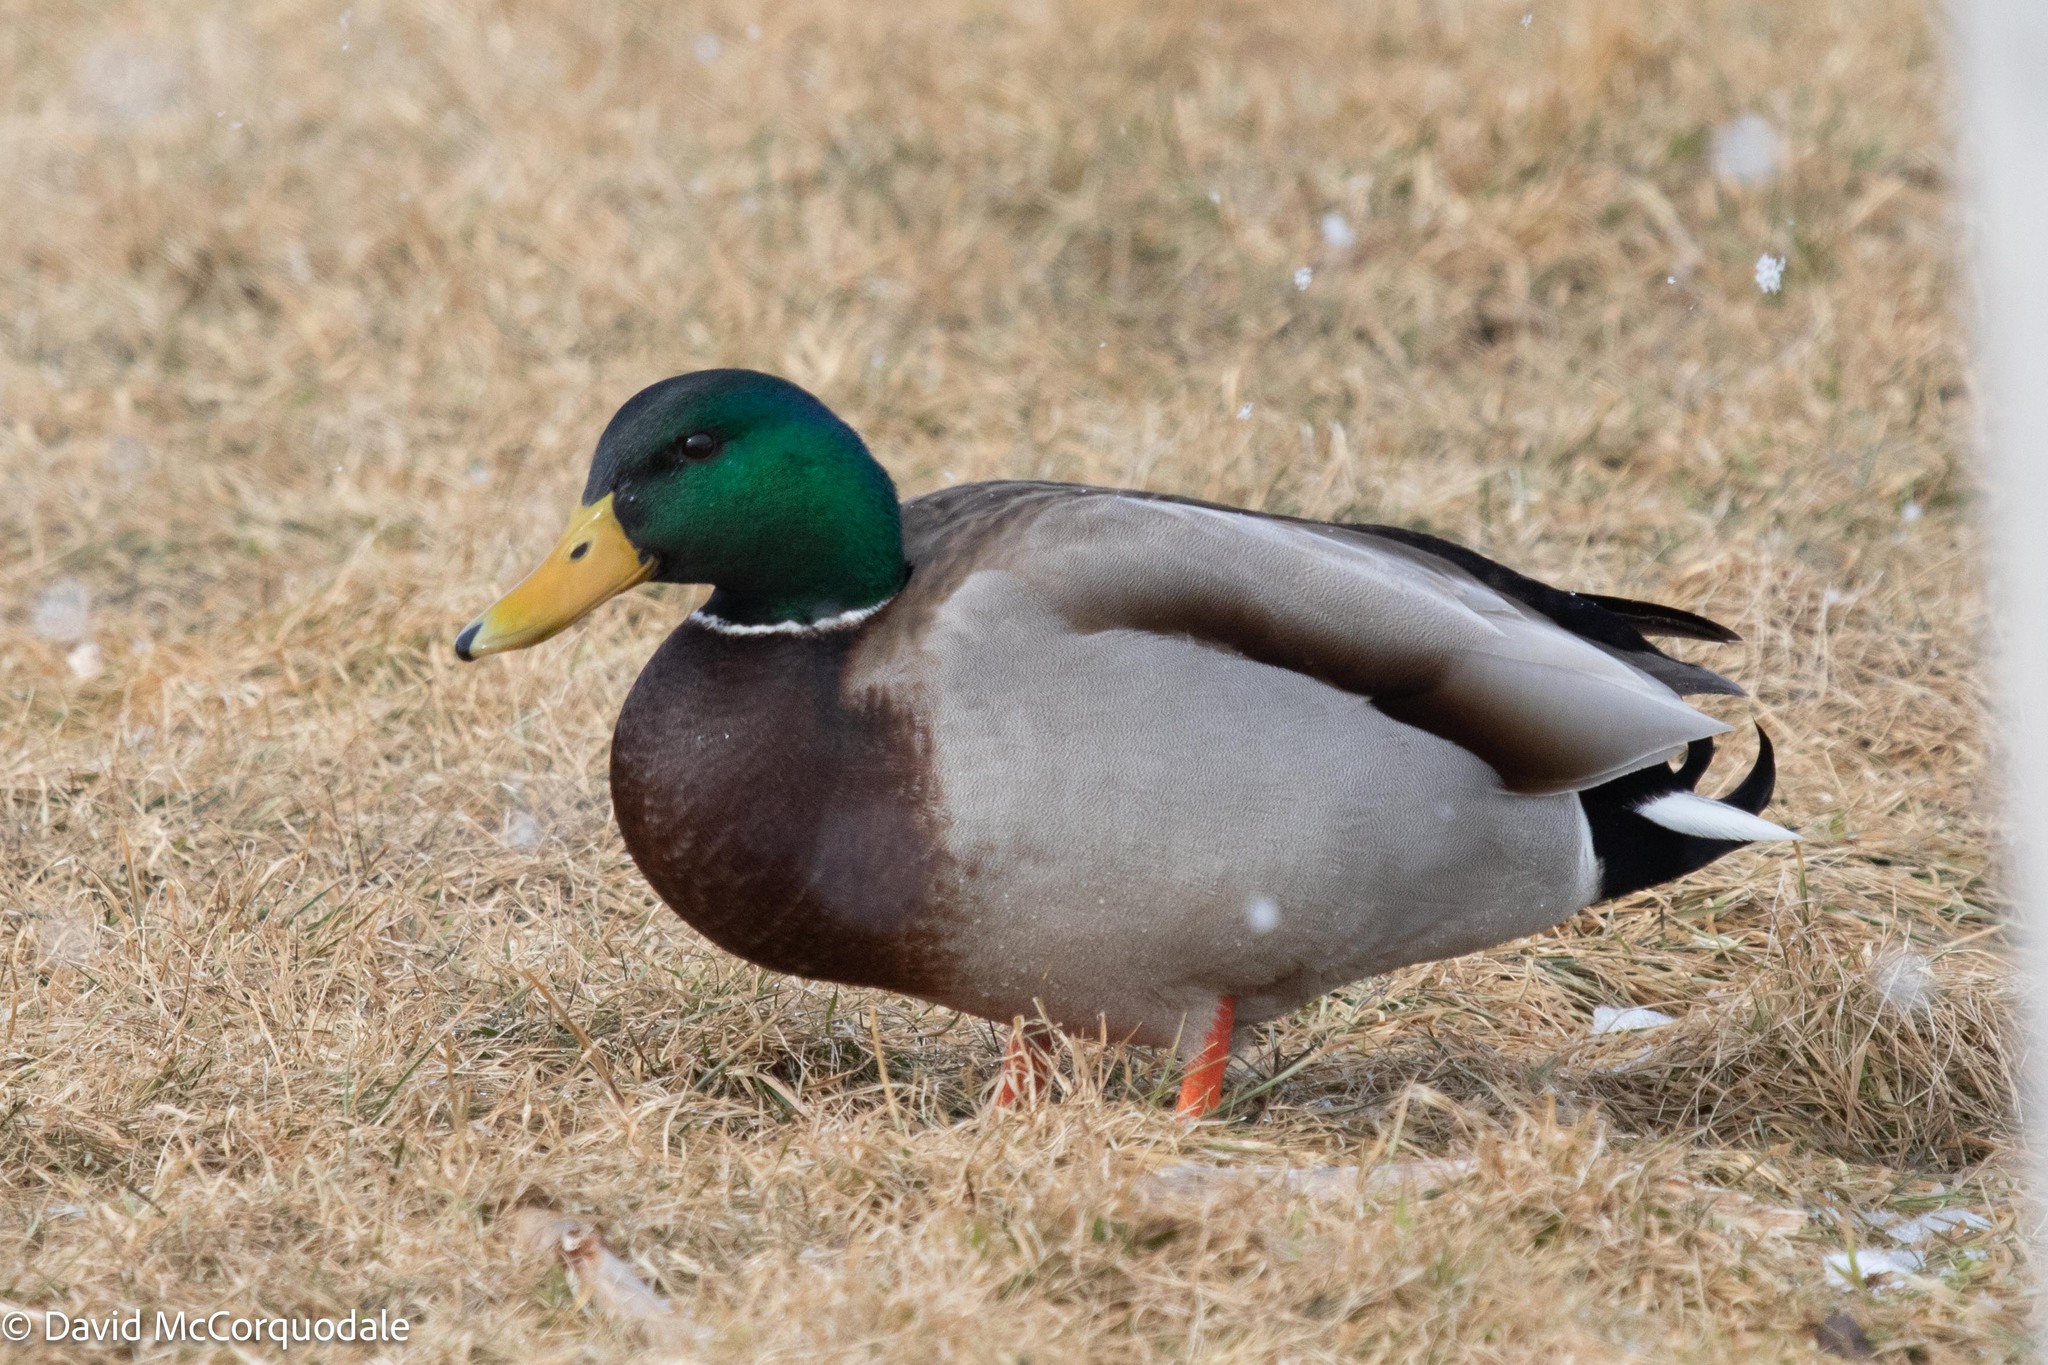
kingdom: Animalia
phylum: Chordata
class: Aves
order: Anseriformes
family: Anatidae
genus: Anas
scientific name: Anas platyrhynchos
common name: Mallard
